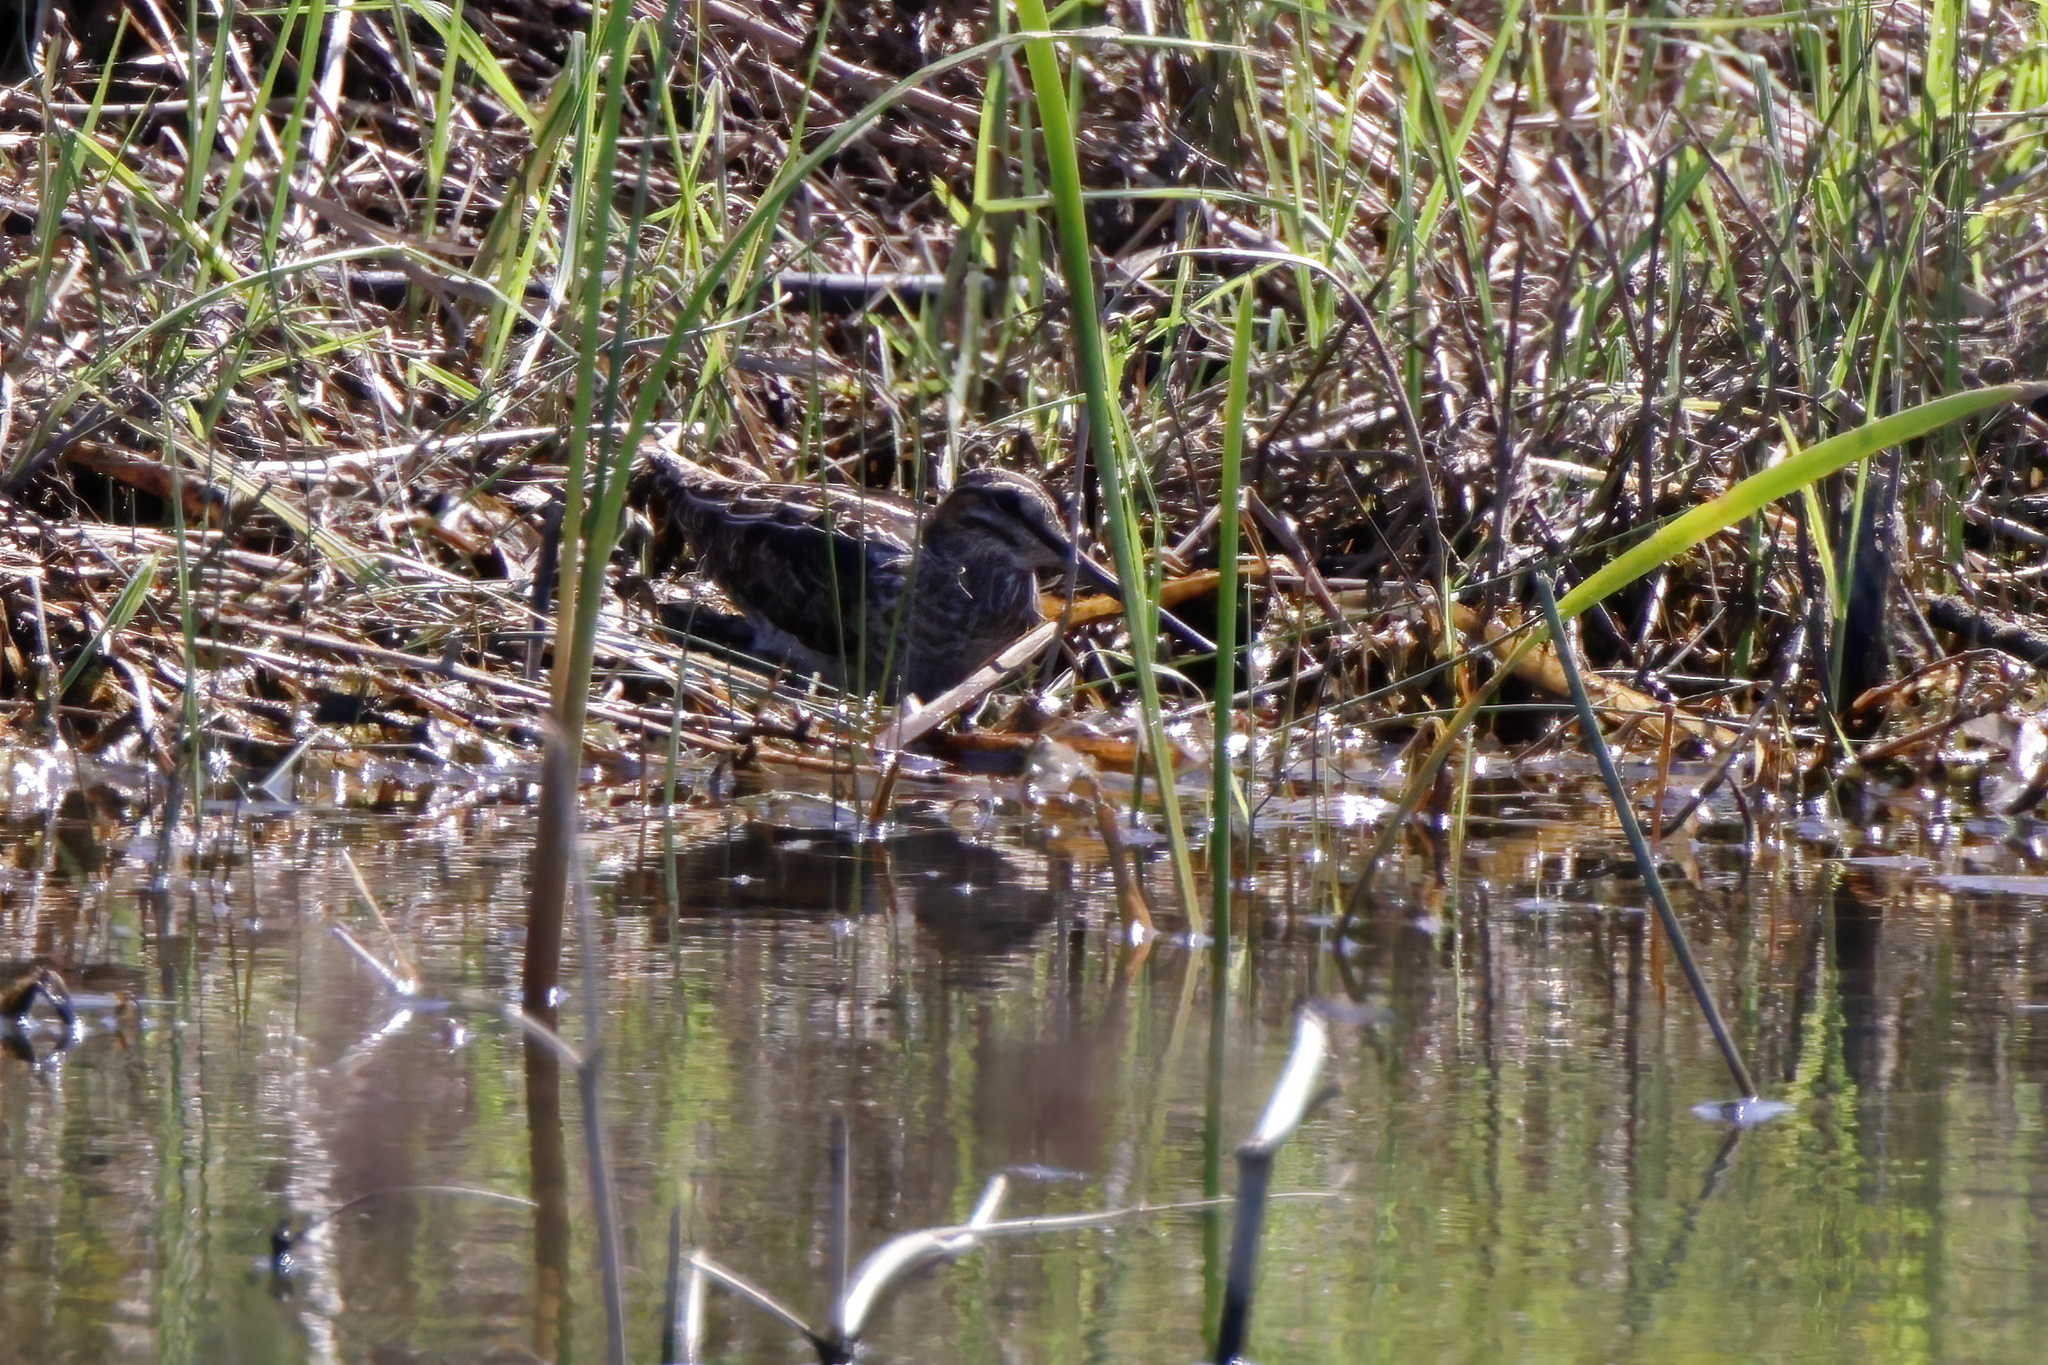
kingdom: Animalia
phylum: Chordata
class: Aves
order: Charadriiformes
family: Scolopacidae
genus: Gallinago
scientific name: Gallinago delicata
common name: Wilson's snipe
